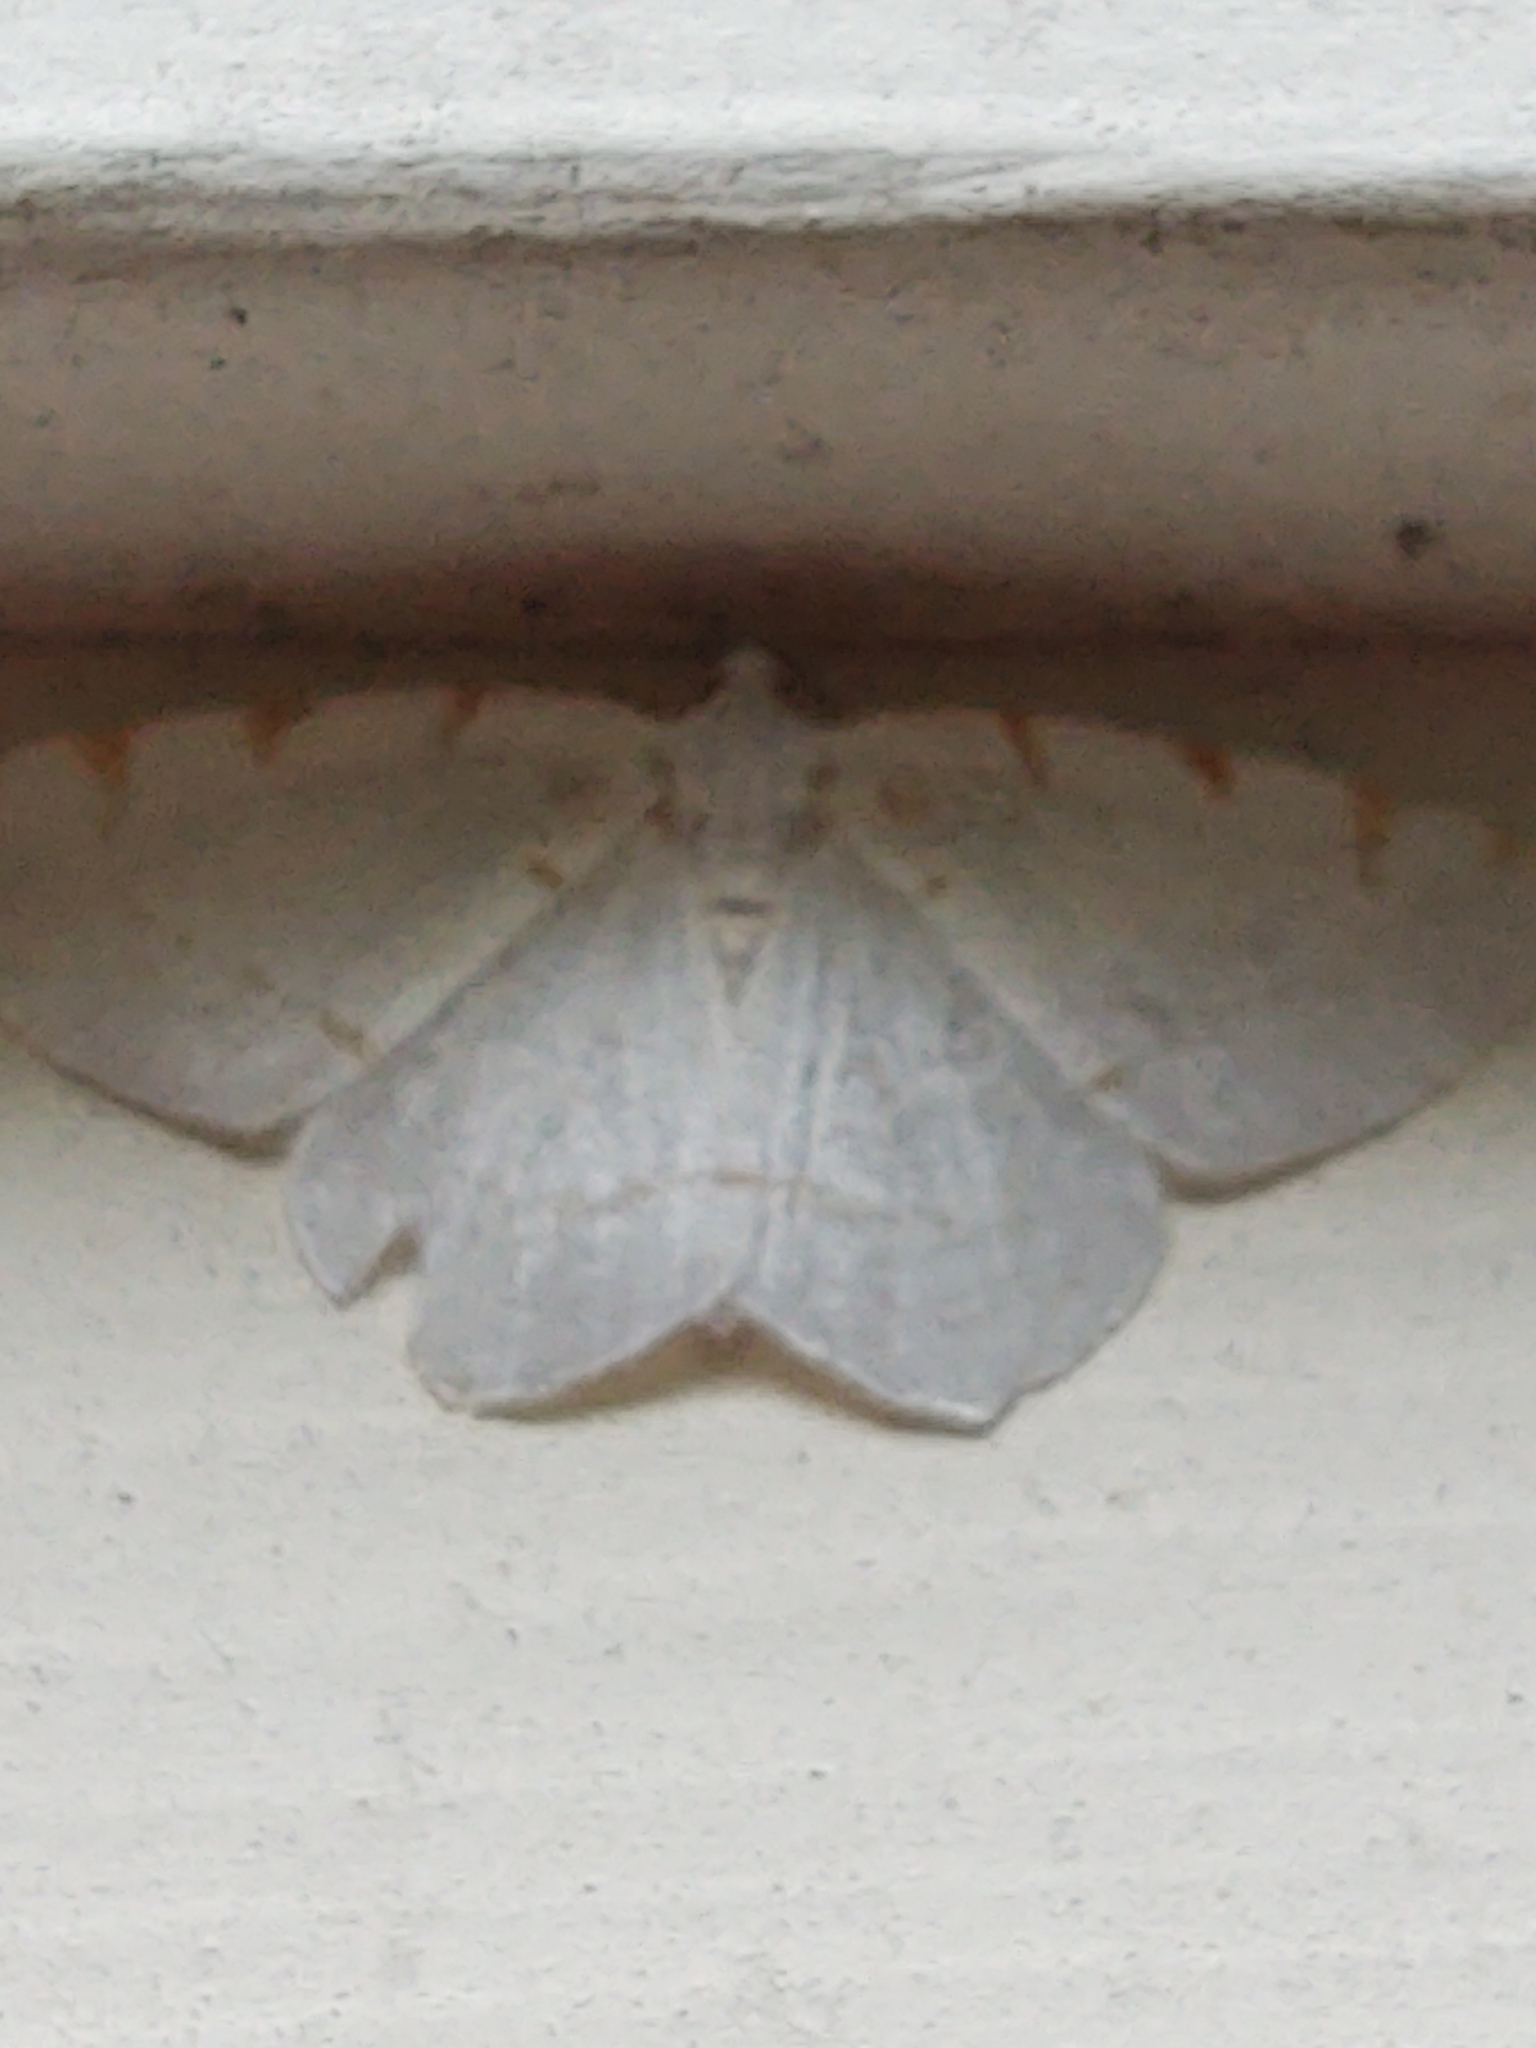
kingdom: Animalia
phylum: Arthropoda
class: Insecta
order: Lepidoptera
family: Geometridae
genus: Macaria
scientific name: Macaria pustularia
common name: Lesser maple spanworm moth
